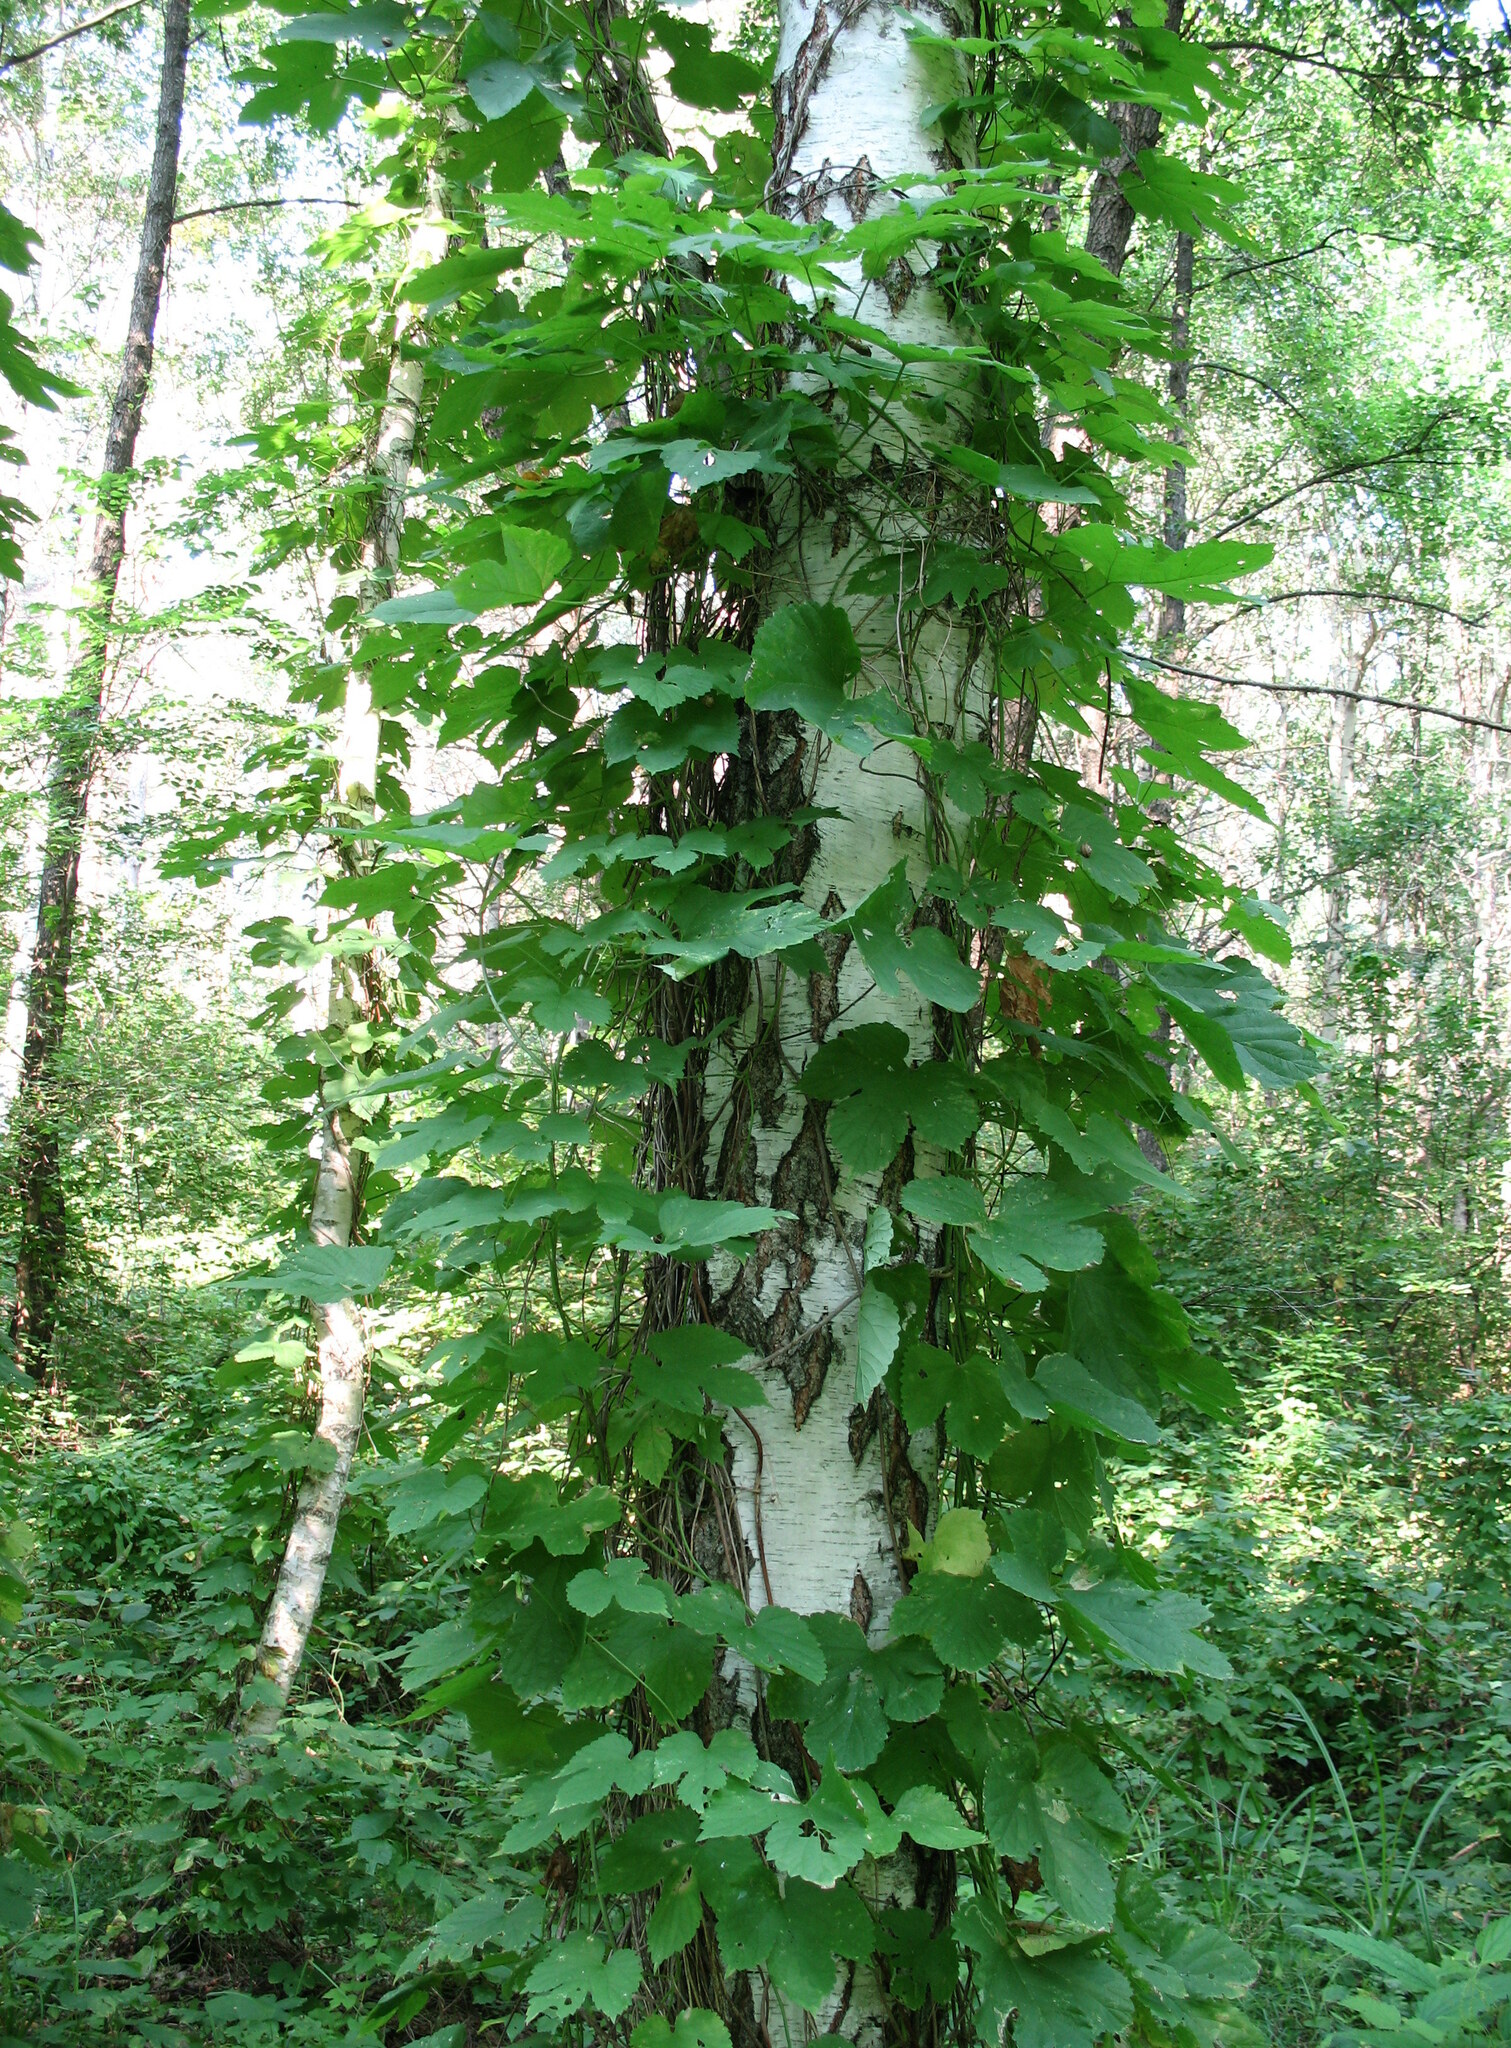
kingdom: Plantae
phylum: Tracheophyta
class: Magnoliopsida
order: Rosales
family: Cannabaceae
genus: Humulus
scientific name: Humulus lupulus
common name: Hop
